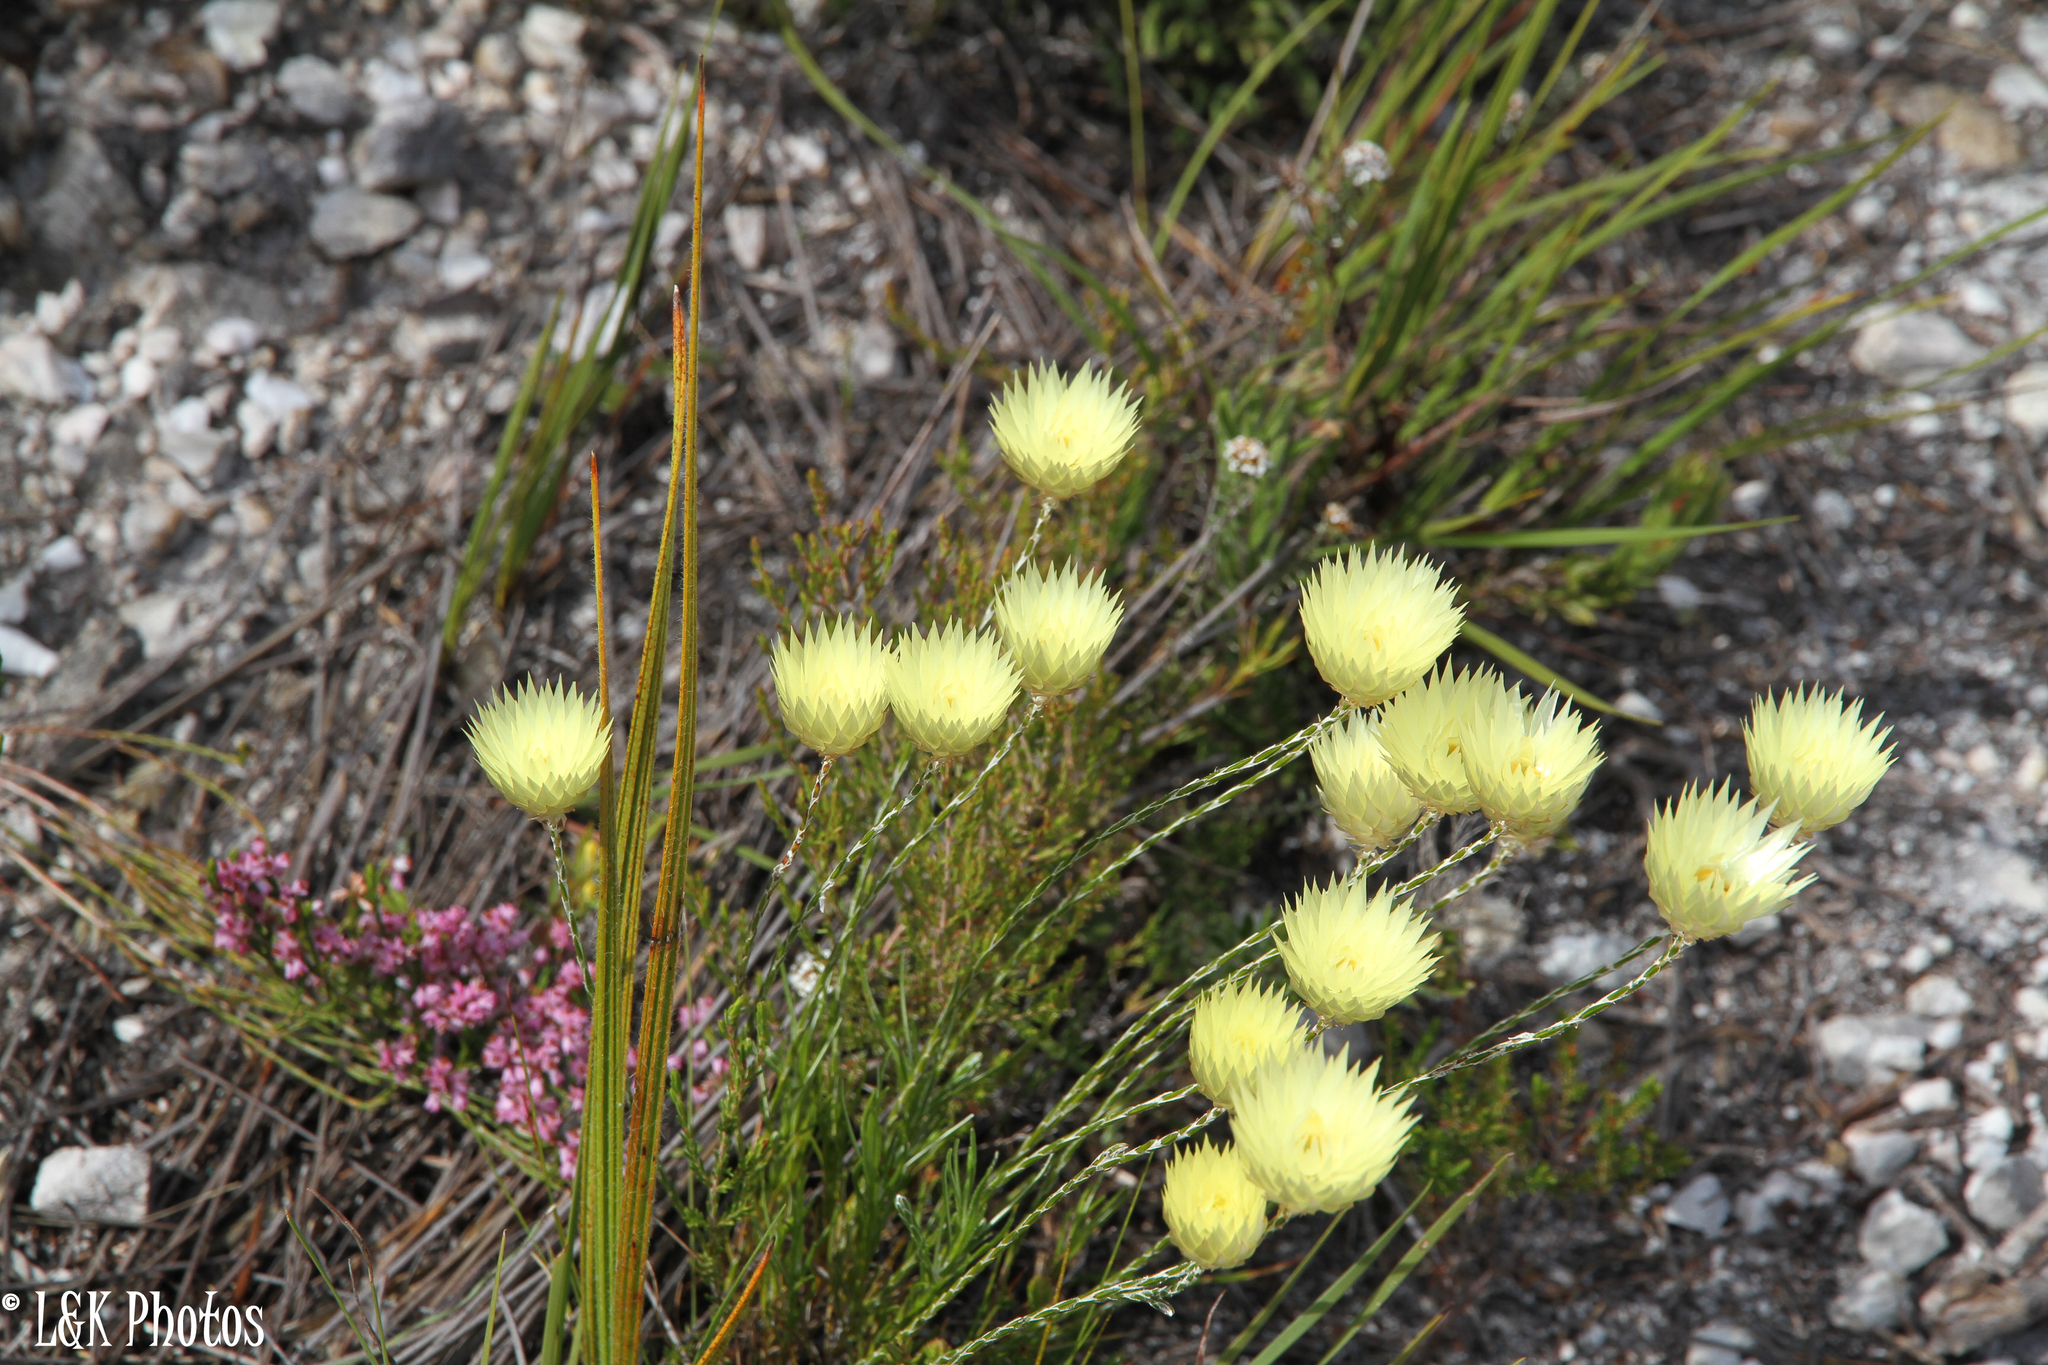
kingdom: Plantae
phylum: Tracheophyta
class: Magnoliopsida
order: Asterales
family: Asteraceae
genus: Edmondia
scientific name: Edmondia sesamoides
